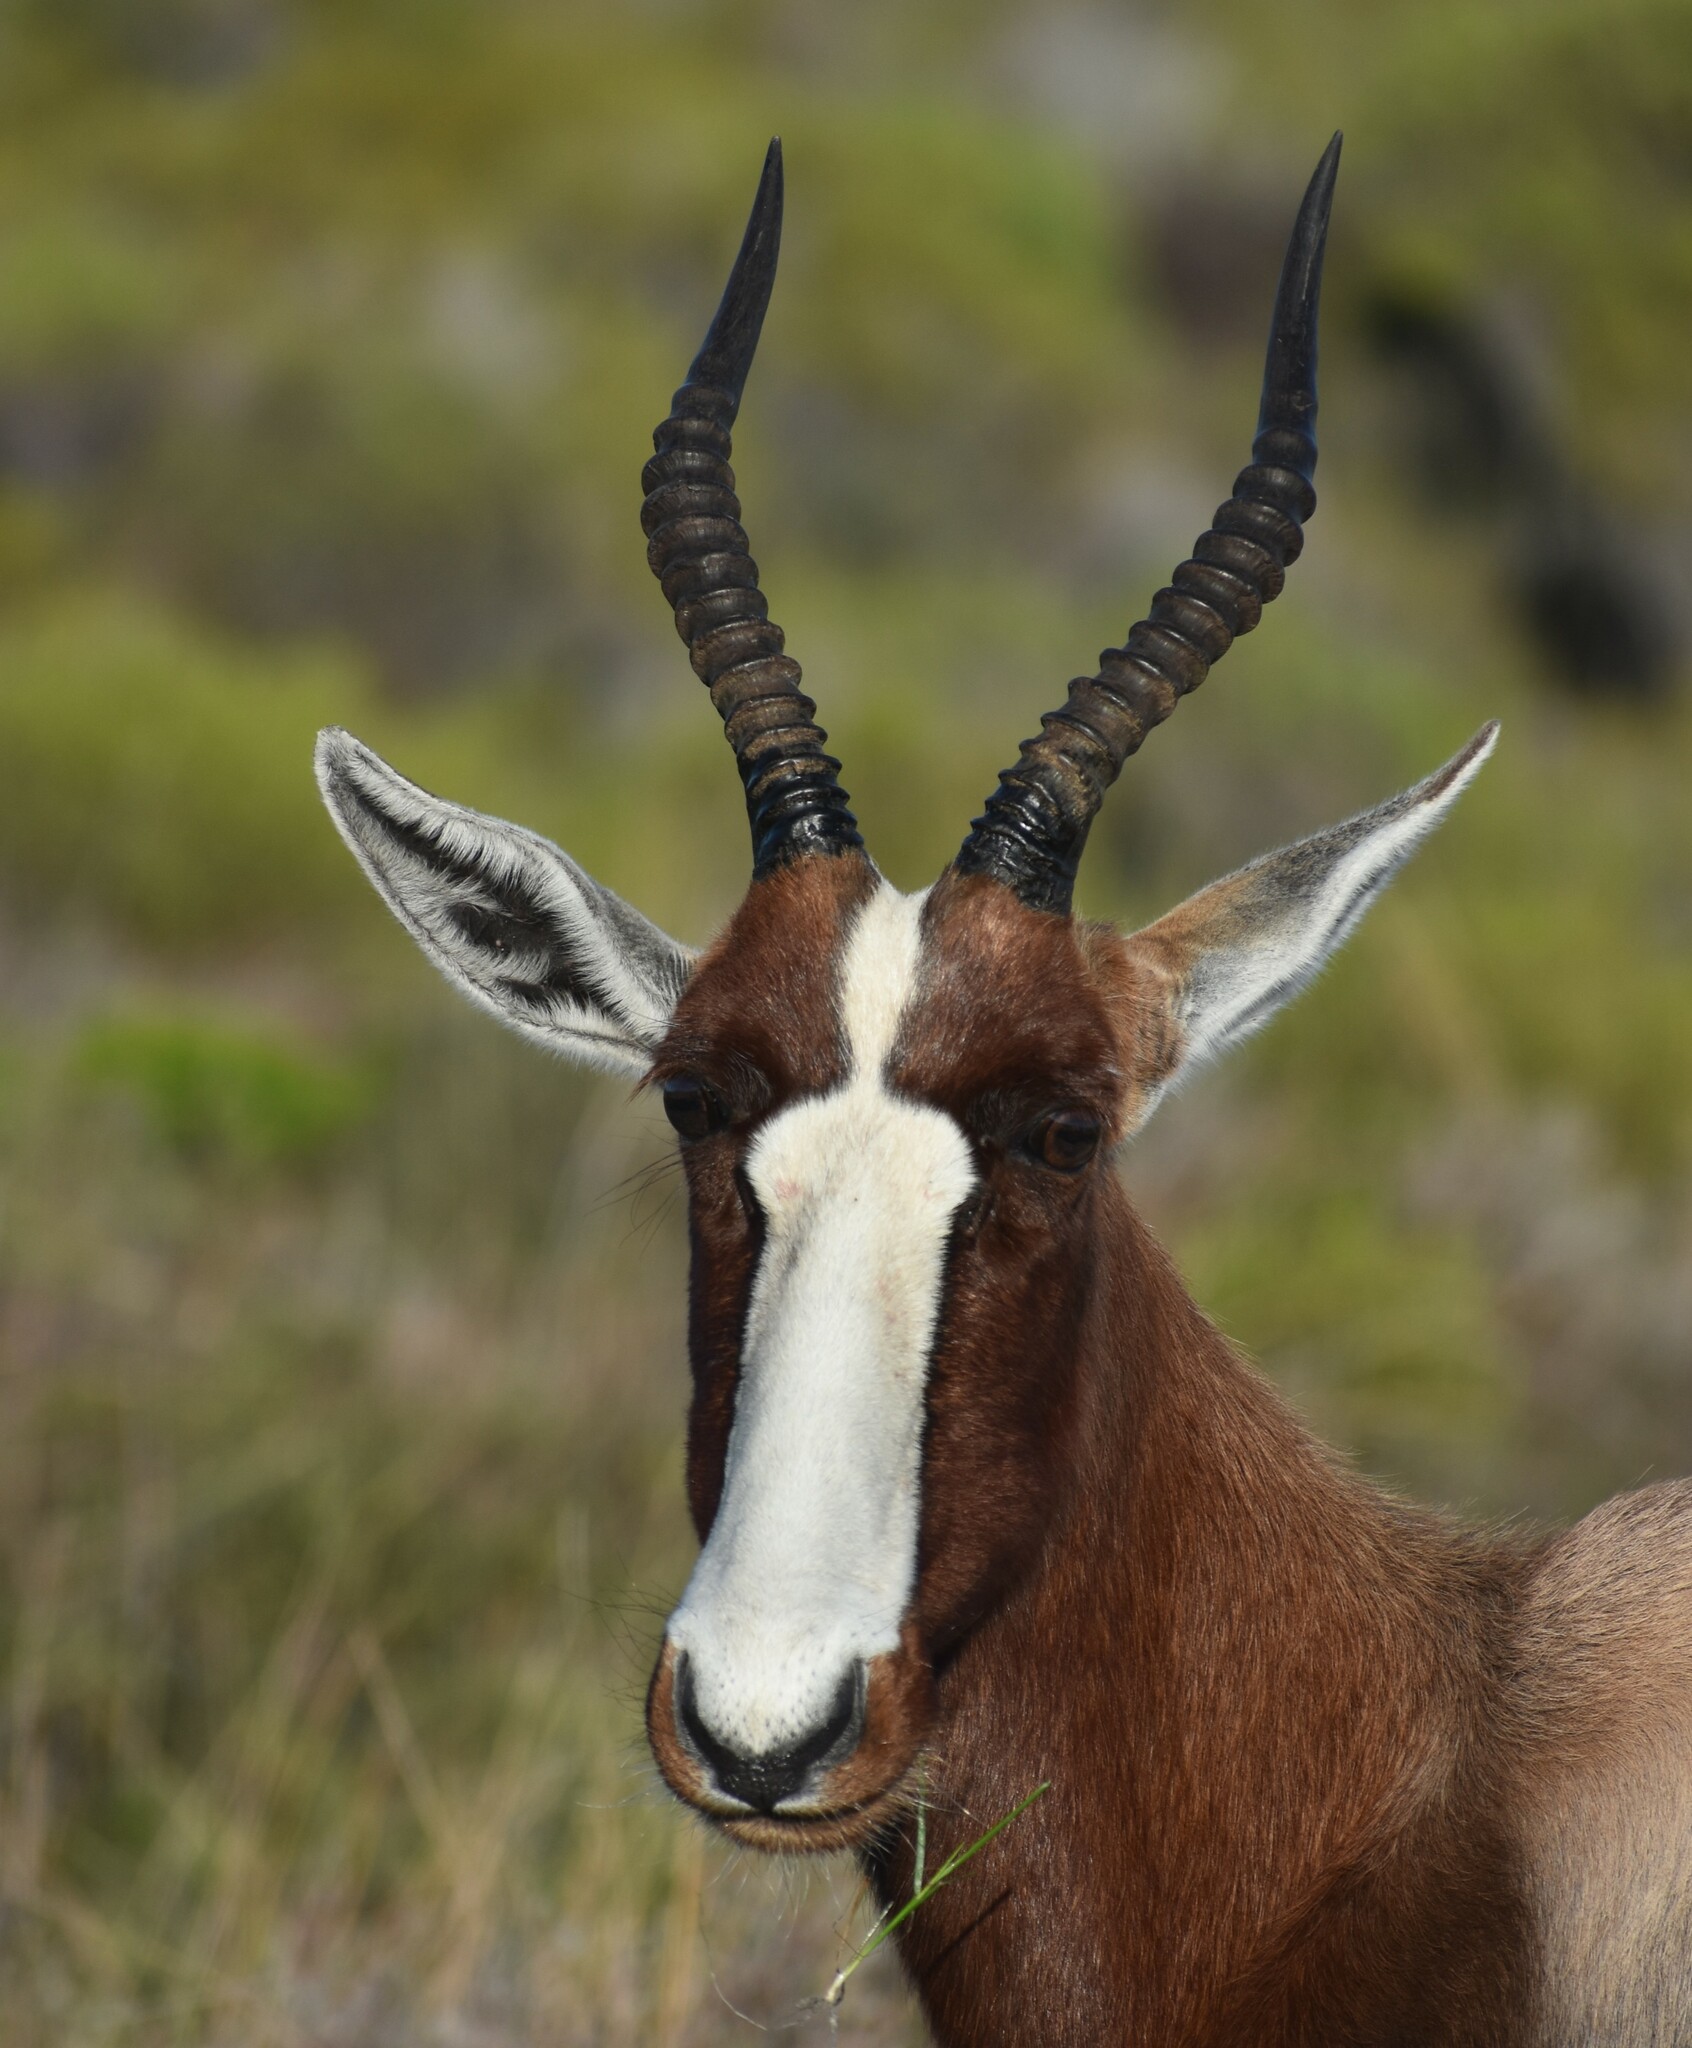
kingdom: Animalia
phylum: Chordata
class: Mammalia
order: Artiodactyla
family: Bovidae
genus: Damaliscus
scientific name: Damaliscus pygargus
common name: Bontebok
